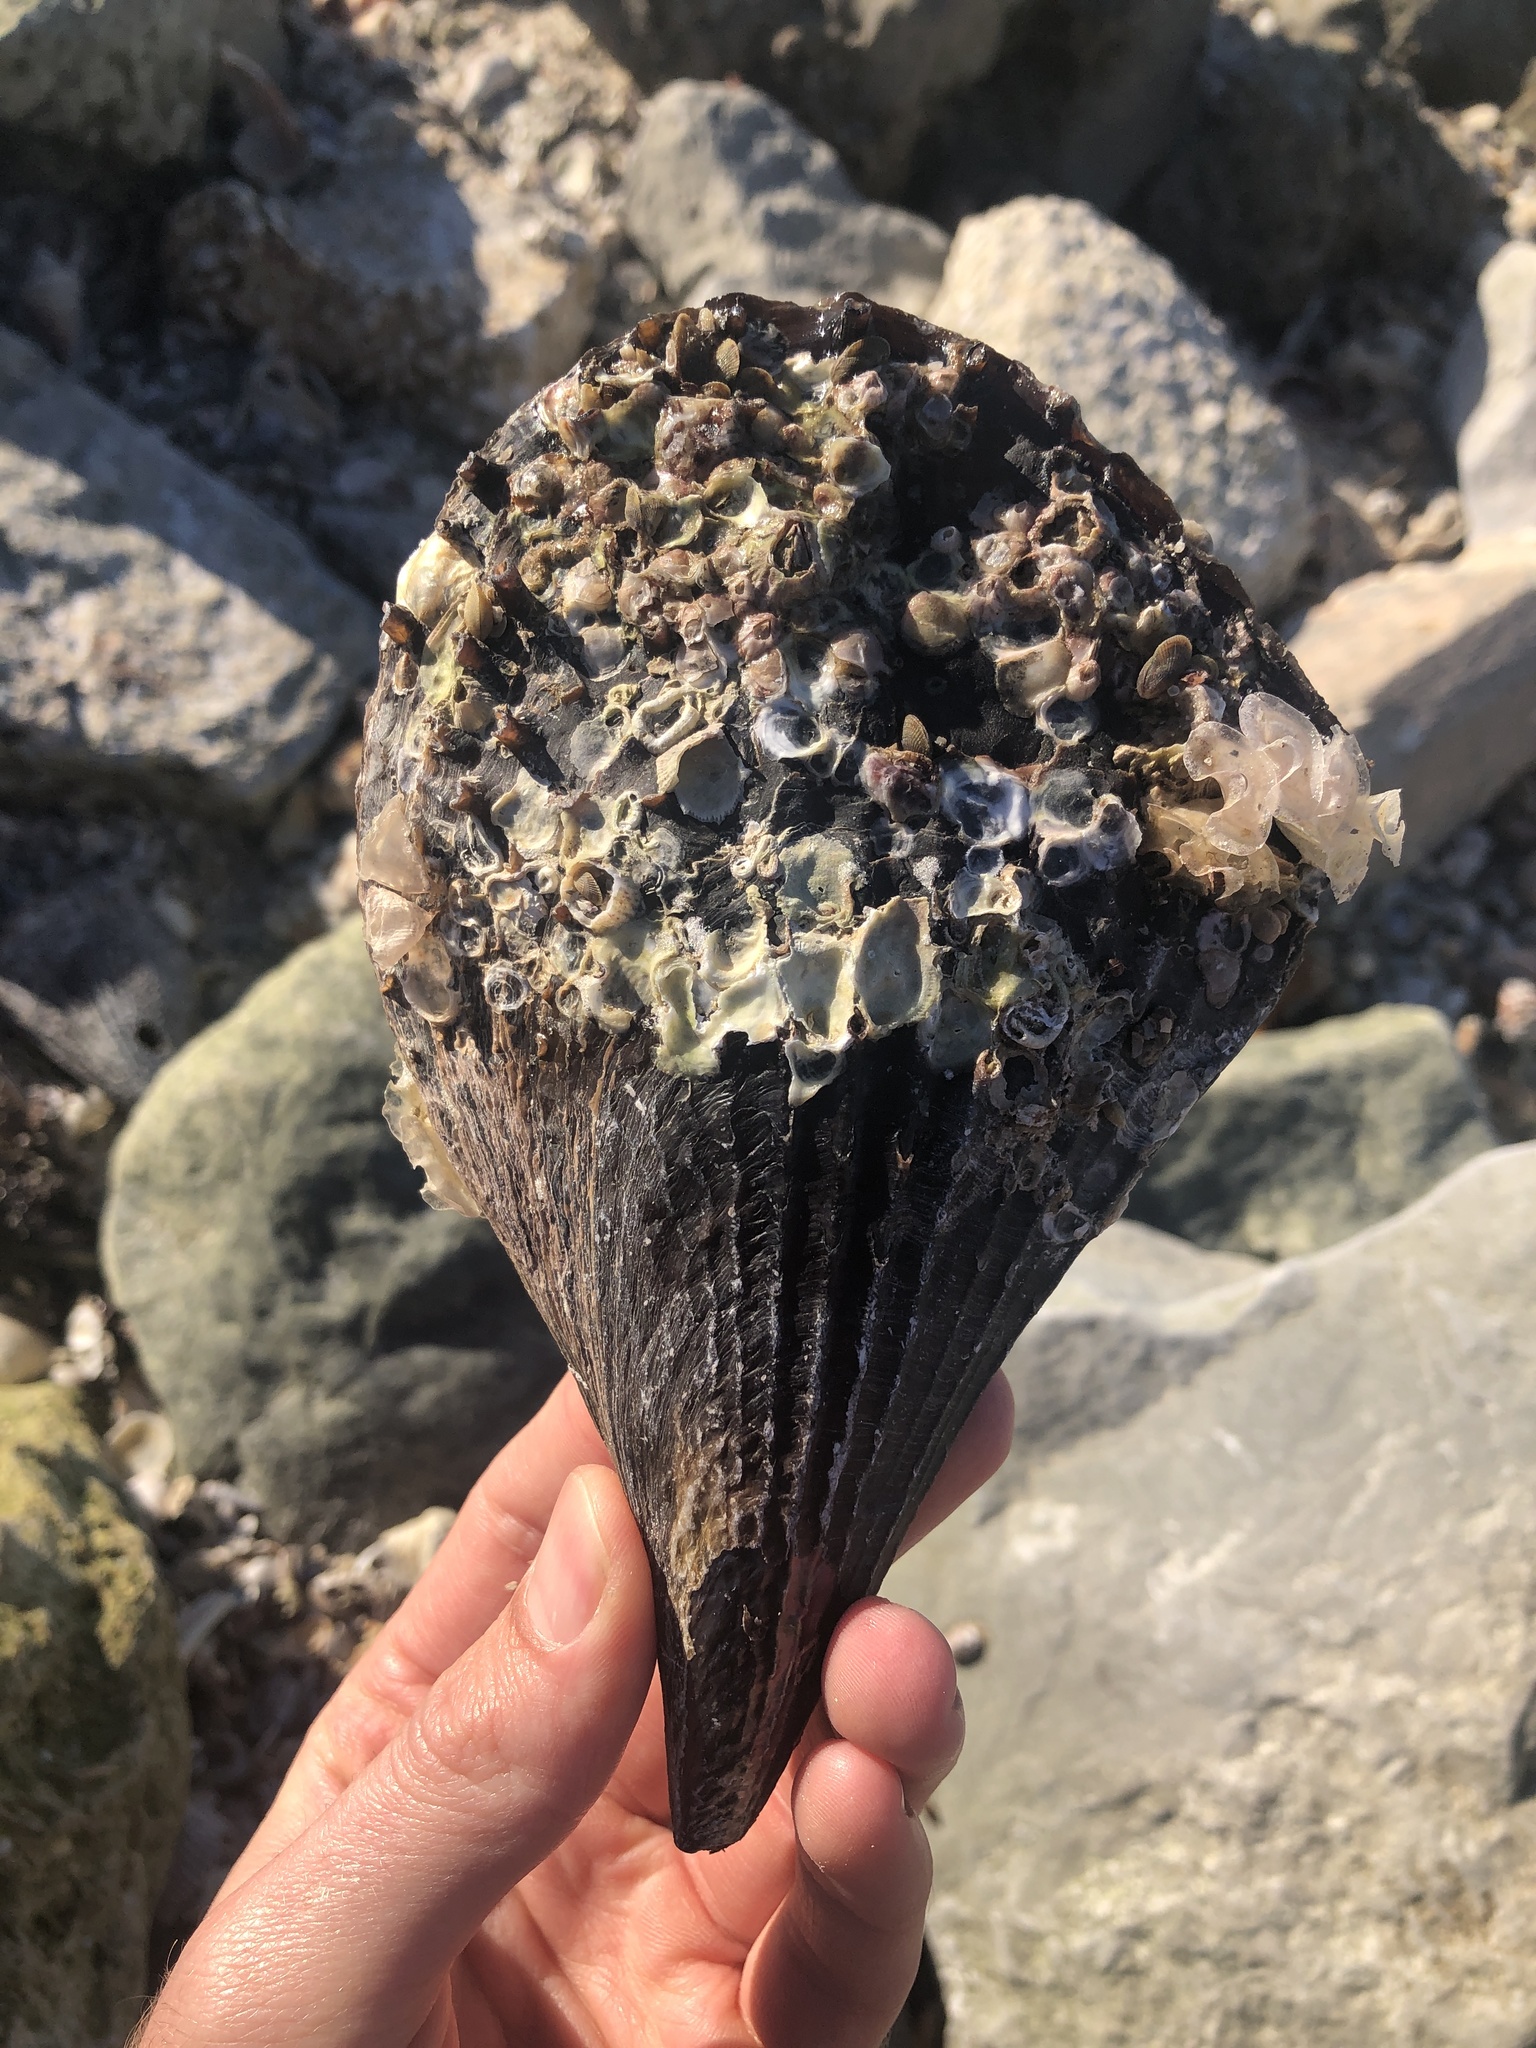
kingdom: Animalia
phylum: Mollusca
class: Bivalvia
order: Ostreida
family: Pinnidae
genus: Atrina
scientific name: Atrina rigida
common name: Stiff penshell
